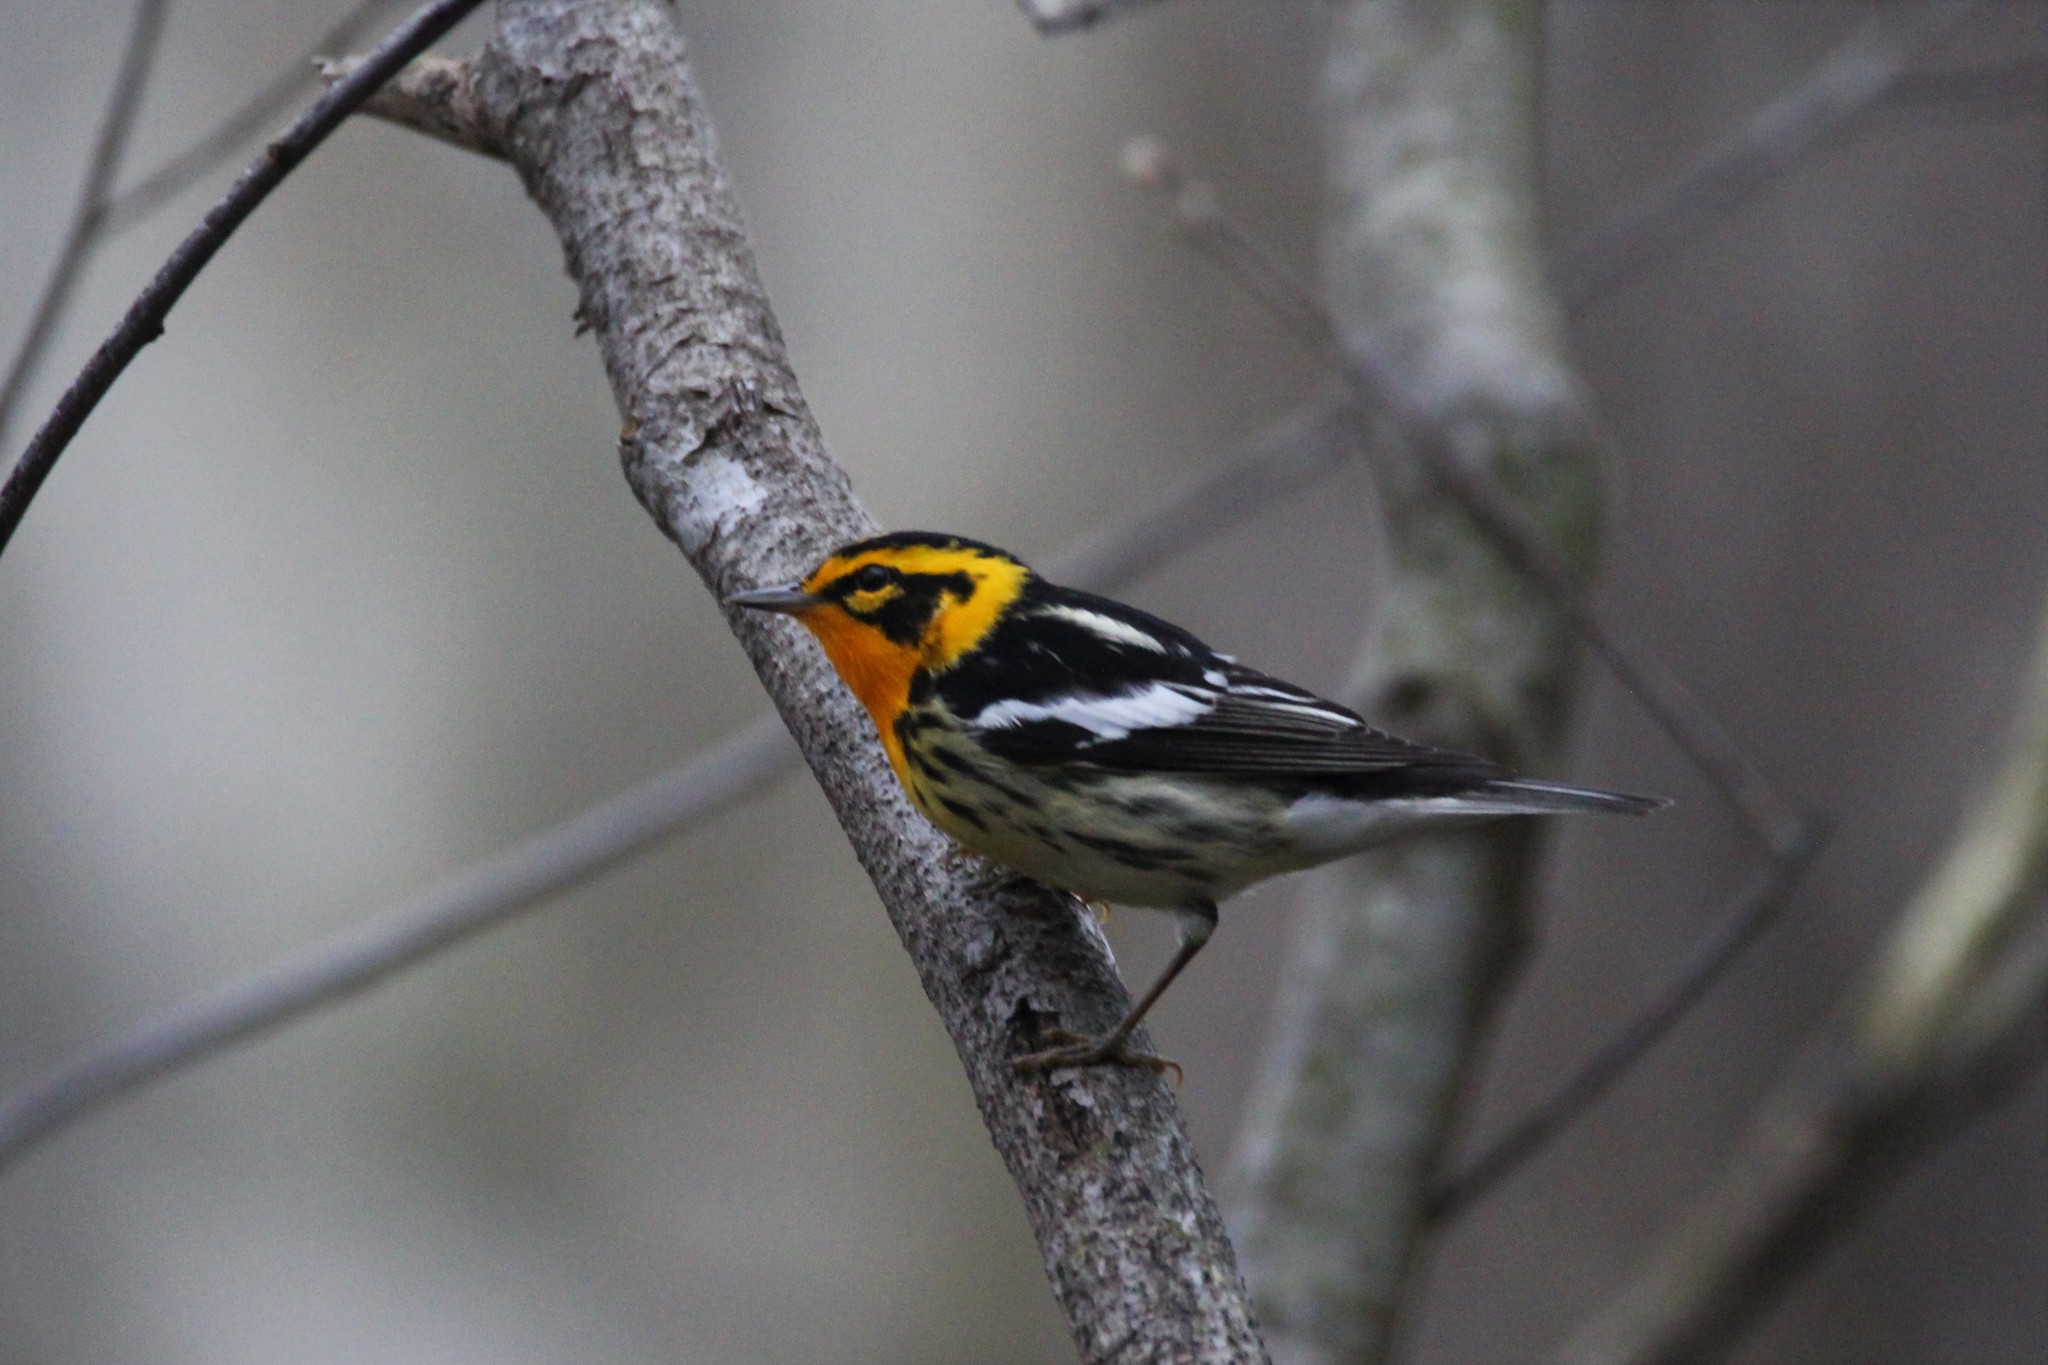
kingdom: Animalia
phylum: Chordata
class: Aves
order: Passeriformes
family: Parulidae
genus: Setophaga
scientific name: Setophaga fusca
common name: Blackburnian warbler
